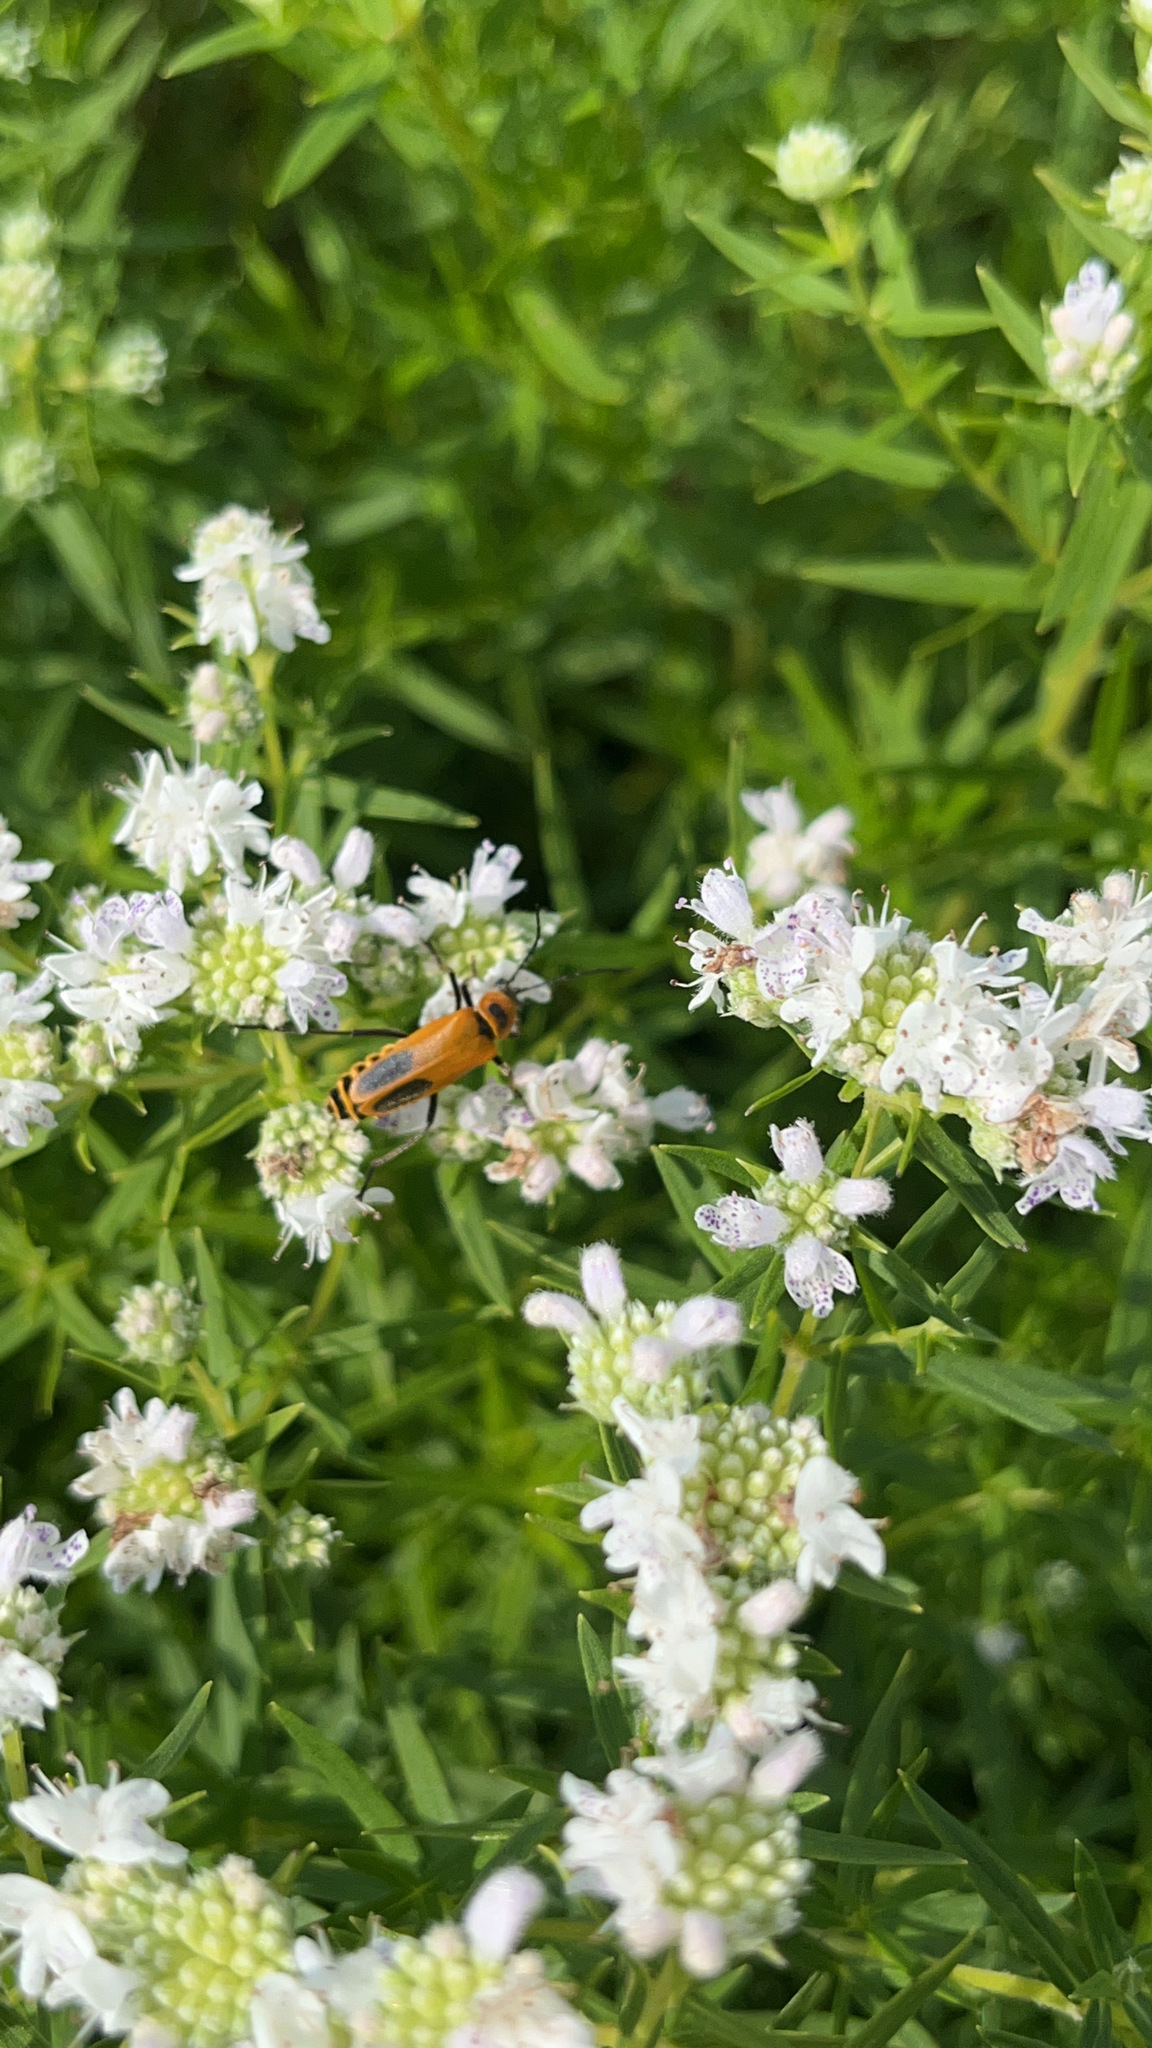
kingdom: Animalia
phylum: Arthropoda
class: Insecta
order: Coleoptera
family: Cantharidae
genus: Chauliognathus
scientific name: Chauliognathus pensylvanicus
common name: Goldenrod soldier beetle
